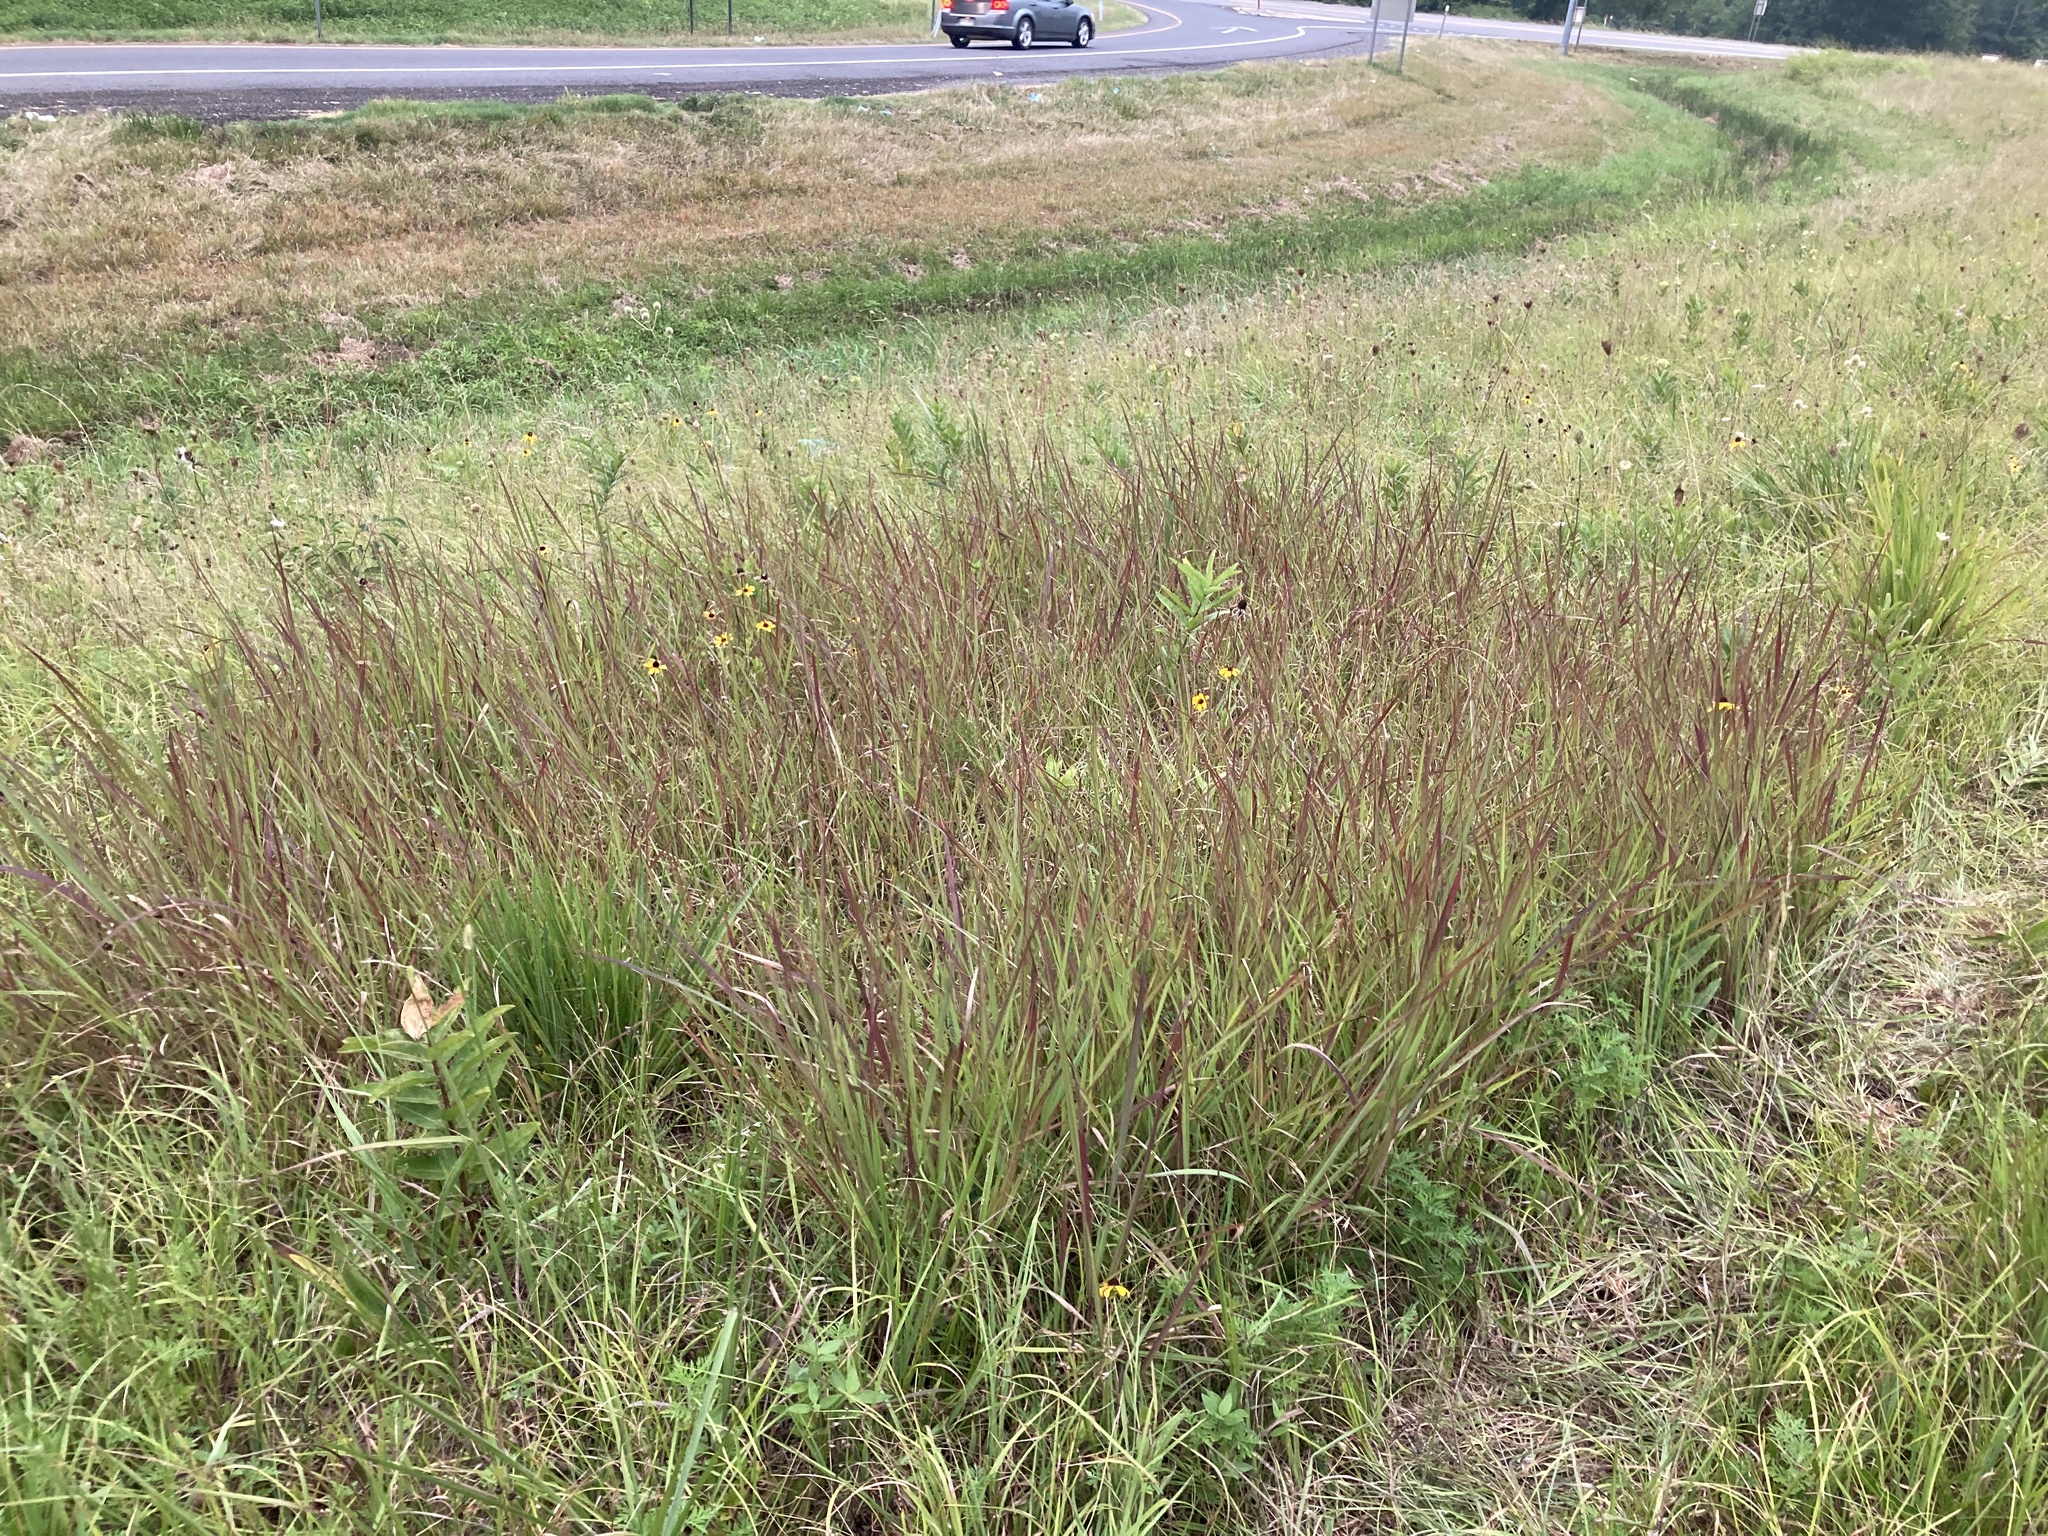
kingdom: Plantae
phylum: Tracheophyta
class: Liliopsida
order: Poales
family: Poaceae
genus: Sorghastrum
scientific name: Sorghastrum nutans
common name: Indian grass
